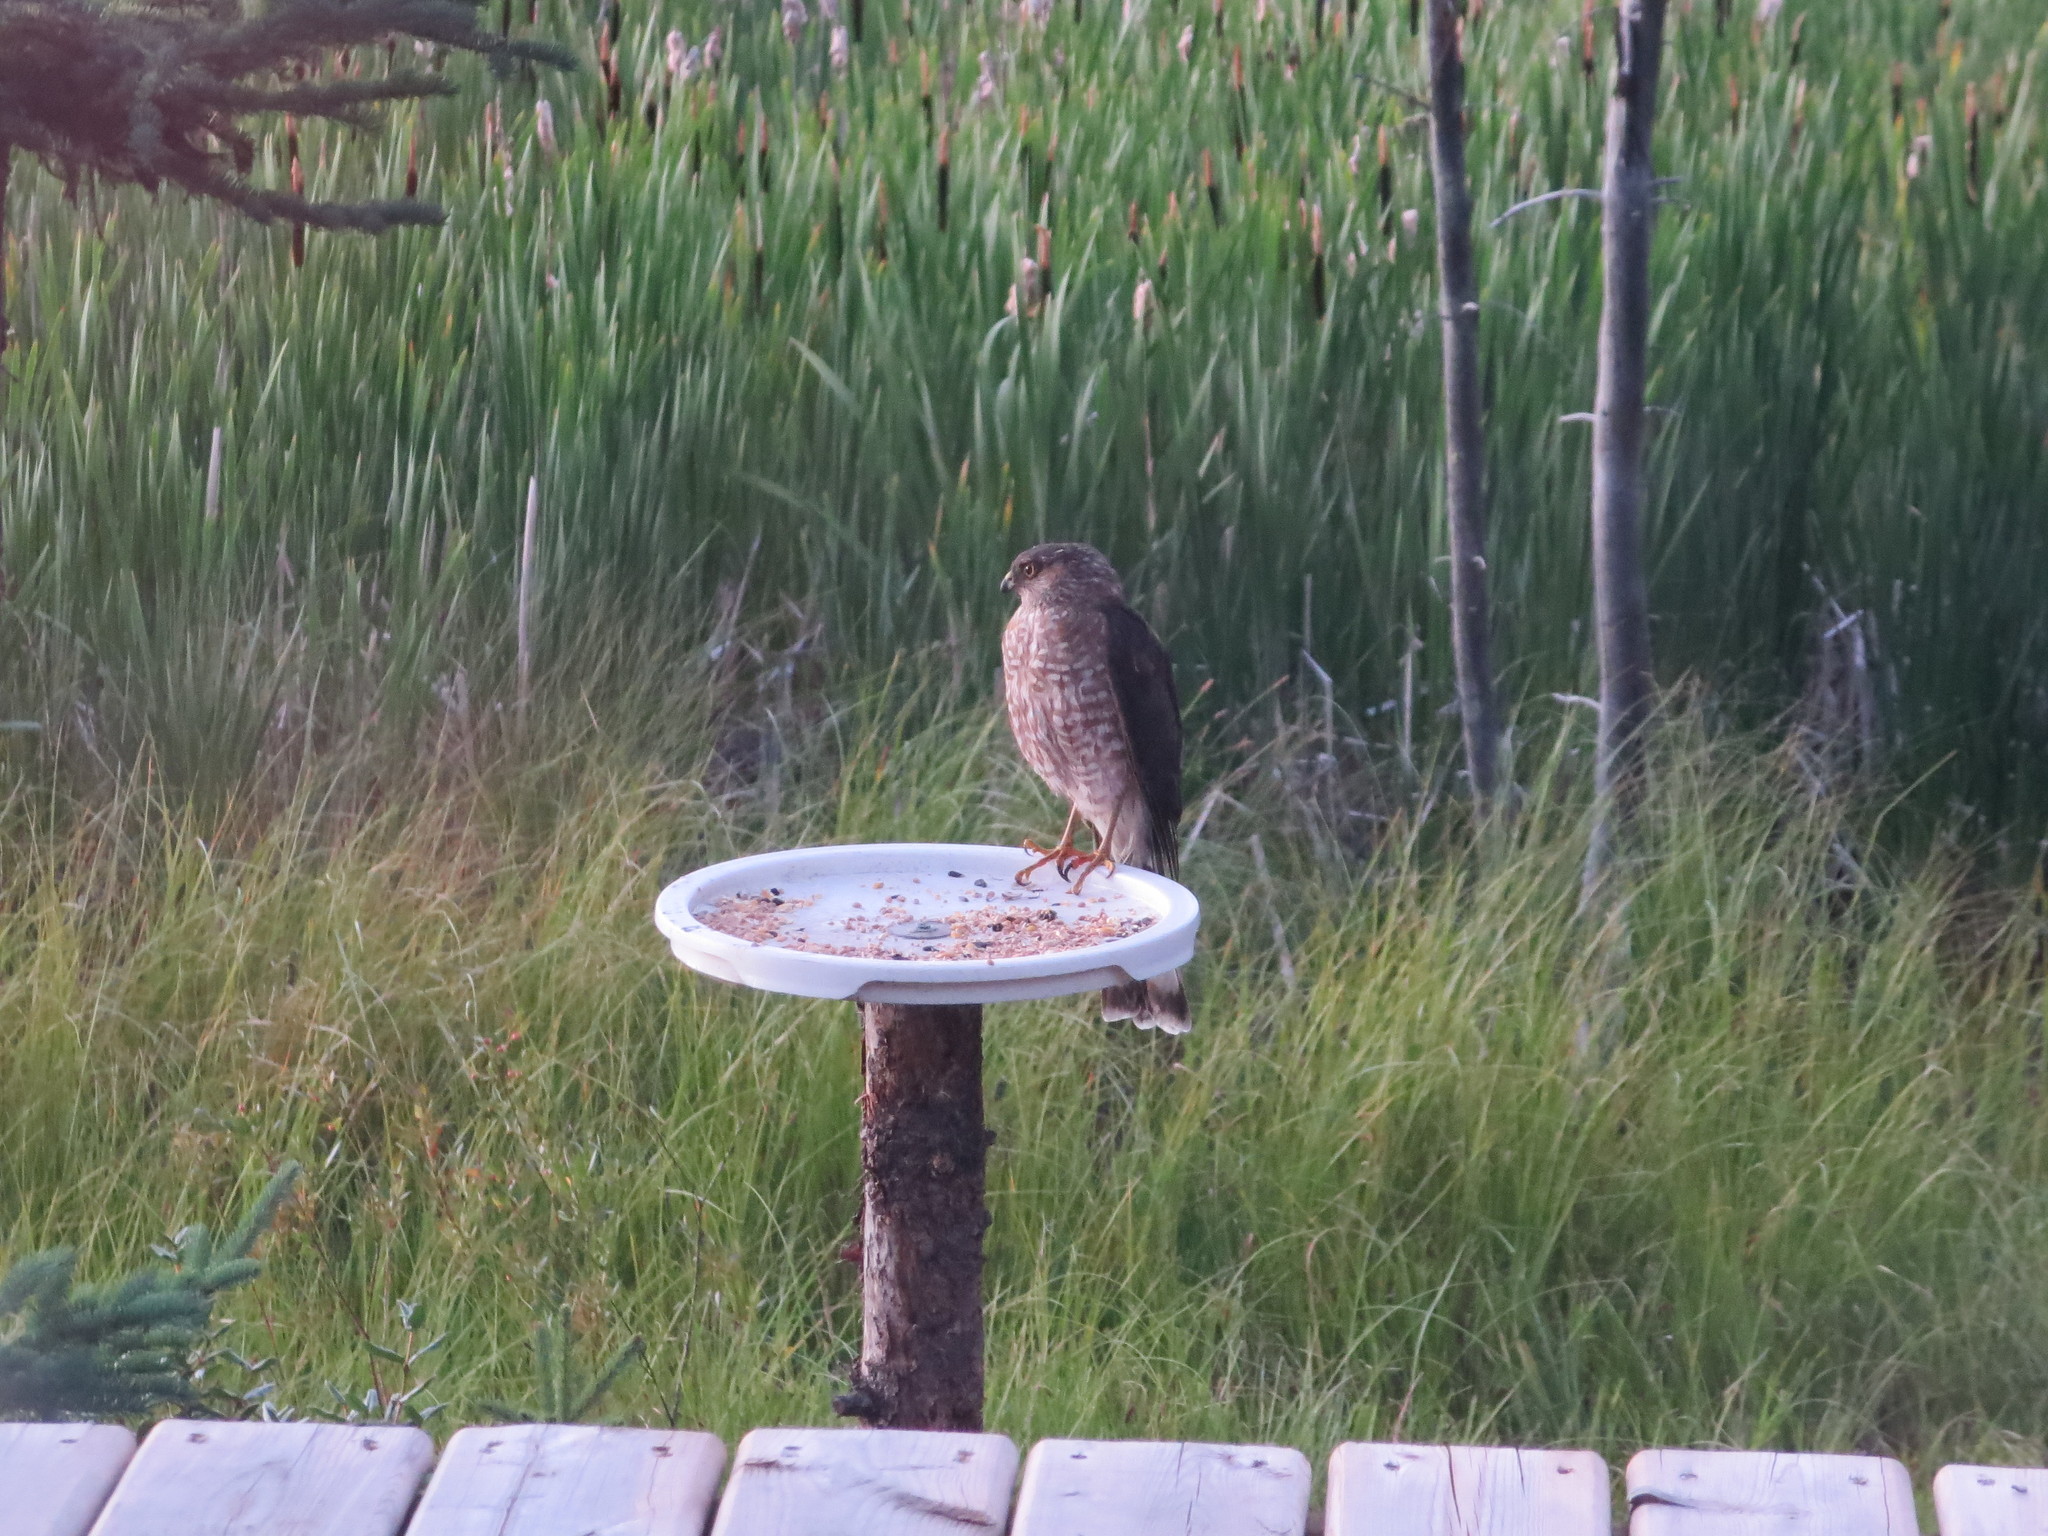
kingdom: Animalia
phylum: Chordata
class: Aves
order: Accipitriformes
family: Accipitridae
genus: Accipiter
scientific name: Accipiter striatus
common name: Sharp-shinned hawk
